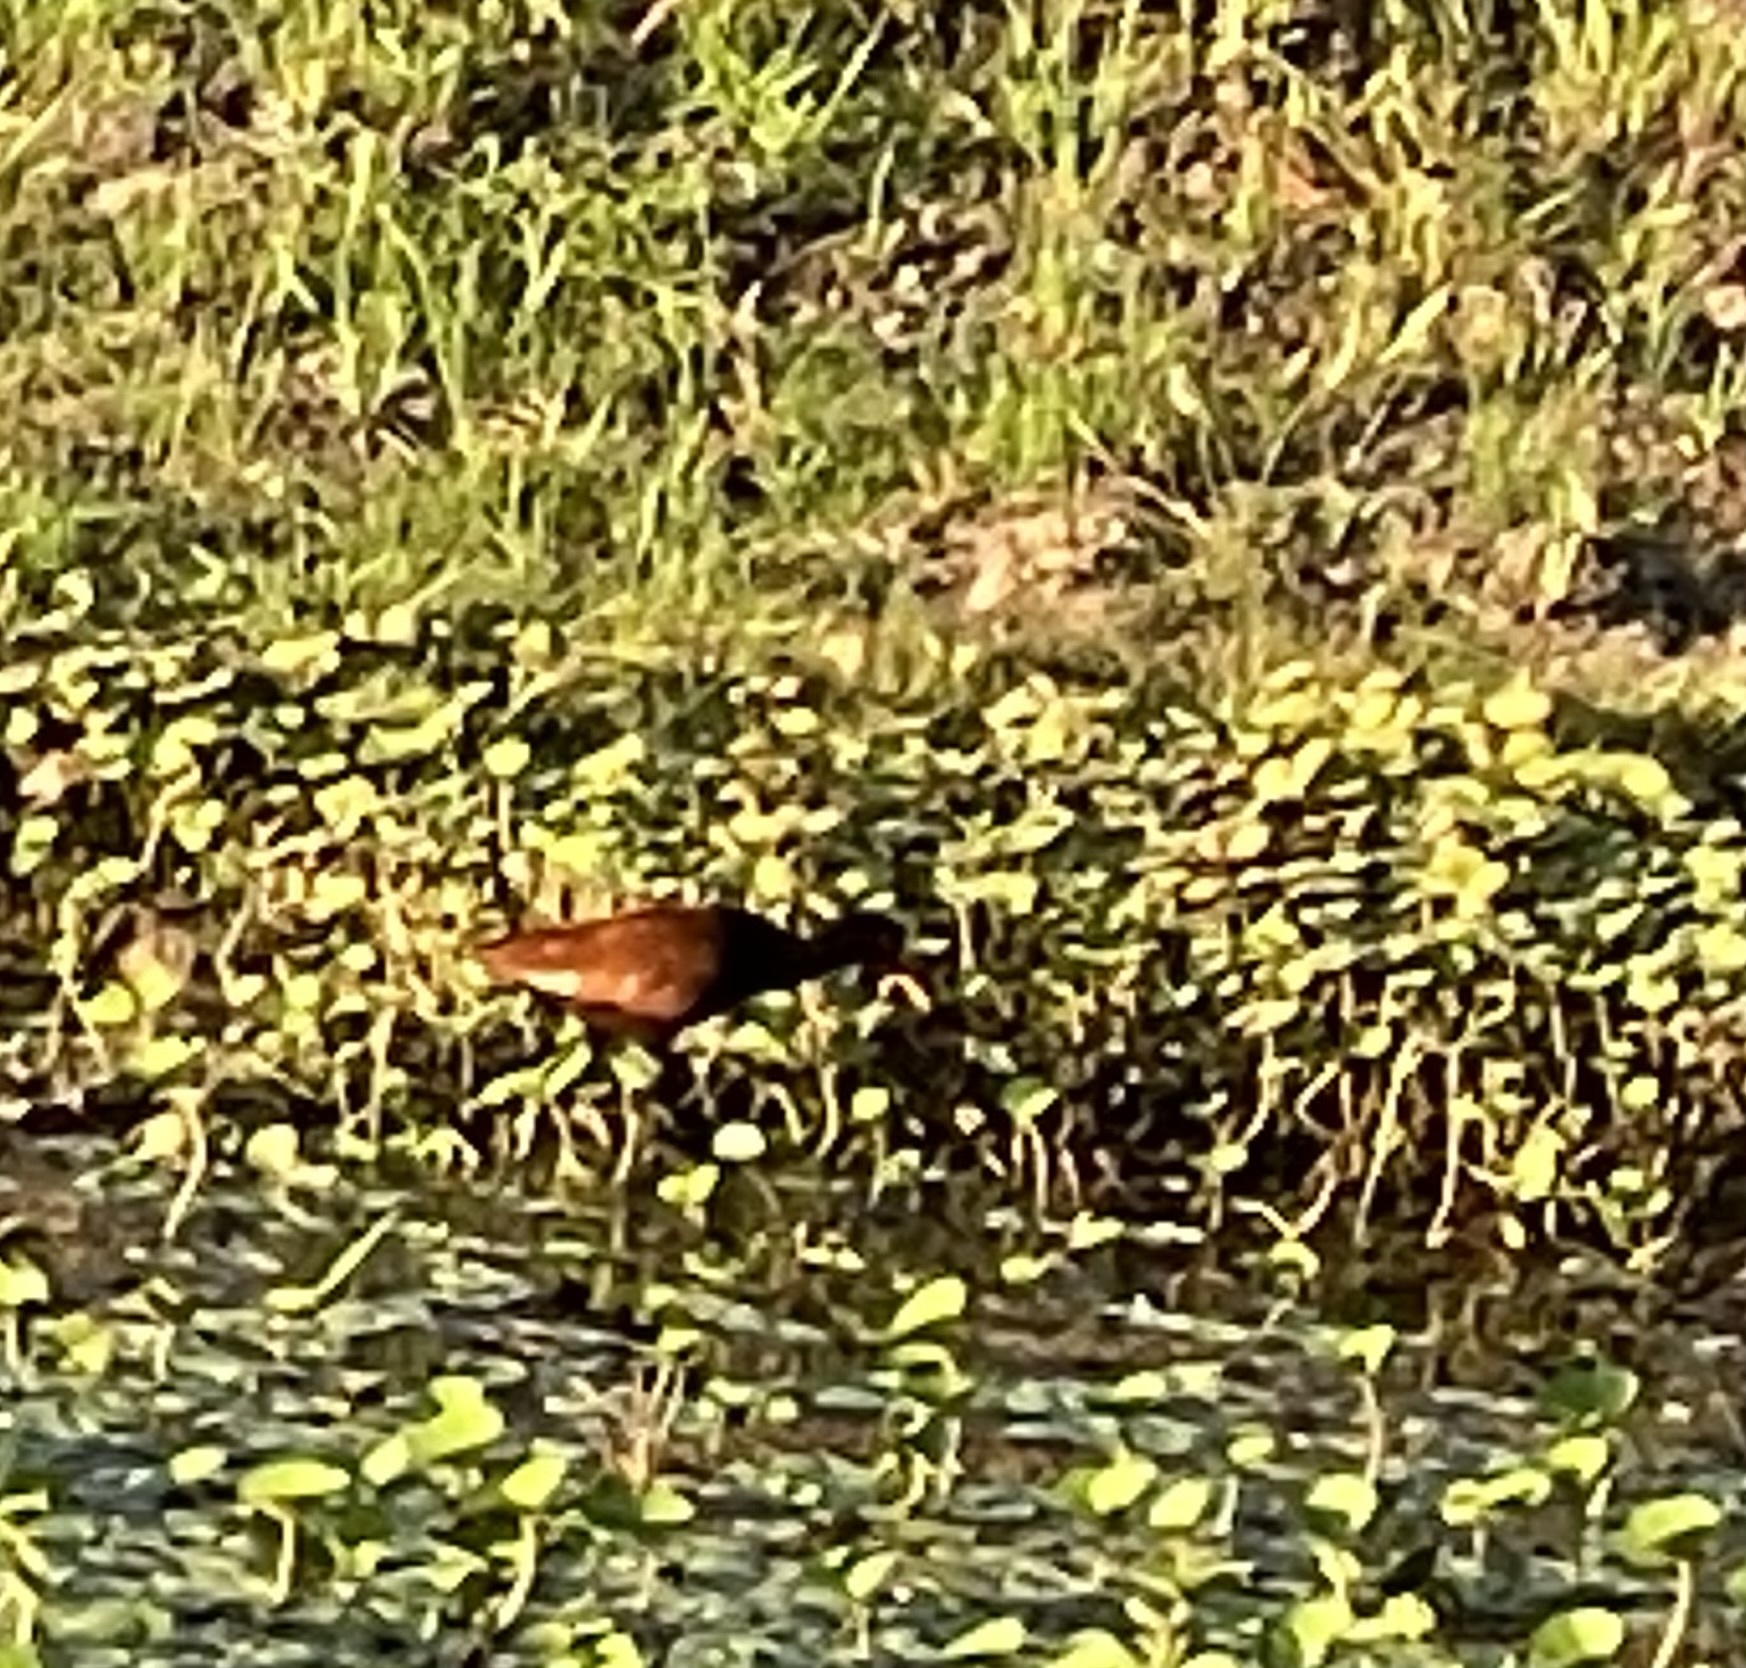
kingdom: Animalia
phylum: Chordata
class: Aves
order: Charadriiformes
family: Jacanidae
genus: Jacana
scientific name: Jacana jacana
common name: Wattled jacana
